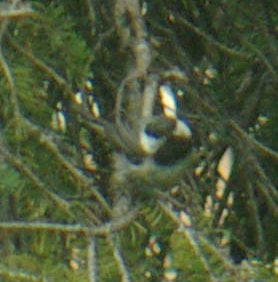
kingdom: Animalia
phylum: Chordata
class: Aves
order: Passeriformes
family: Paridae
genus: Poecile
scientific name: Poecile atricapillus
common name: Black-capped chickadee
